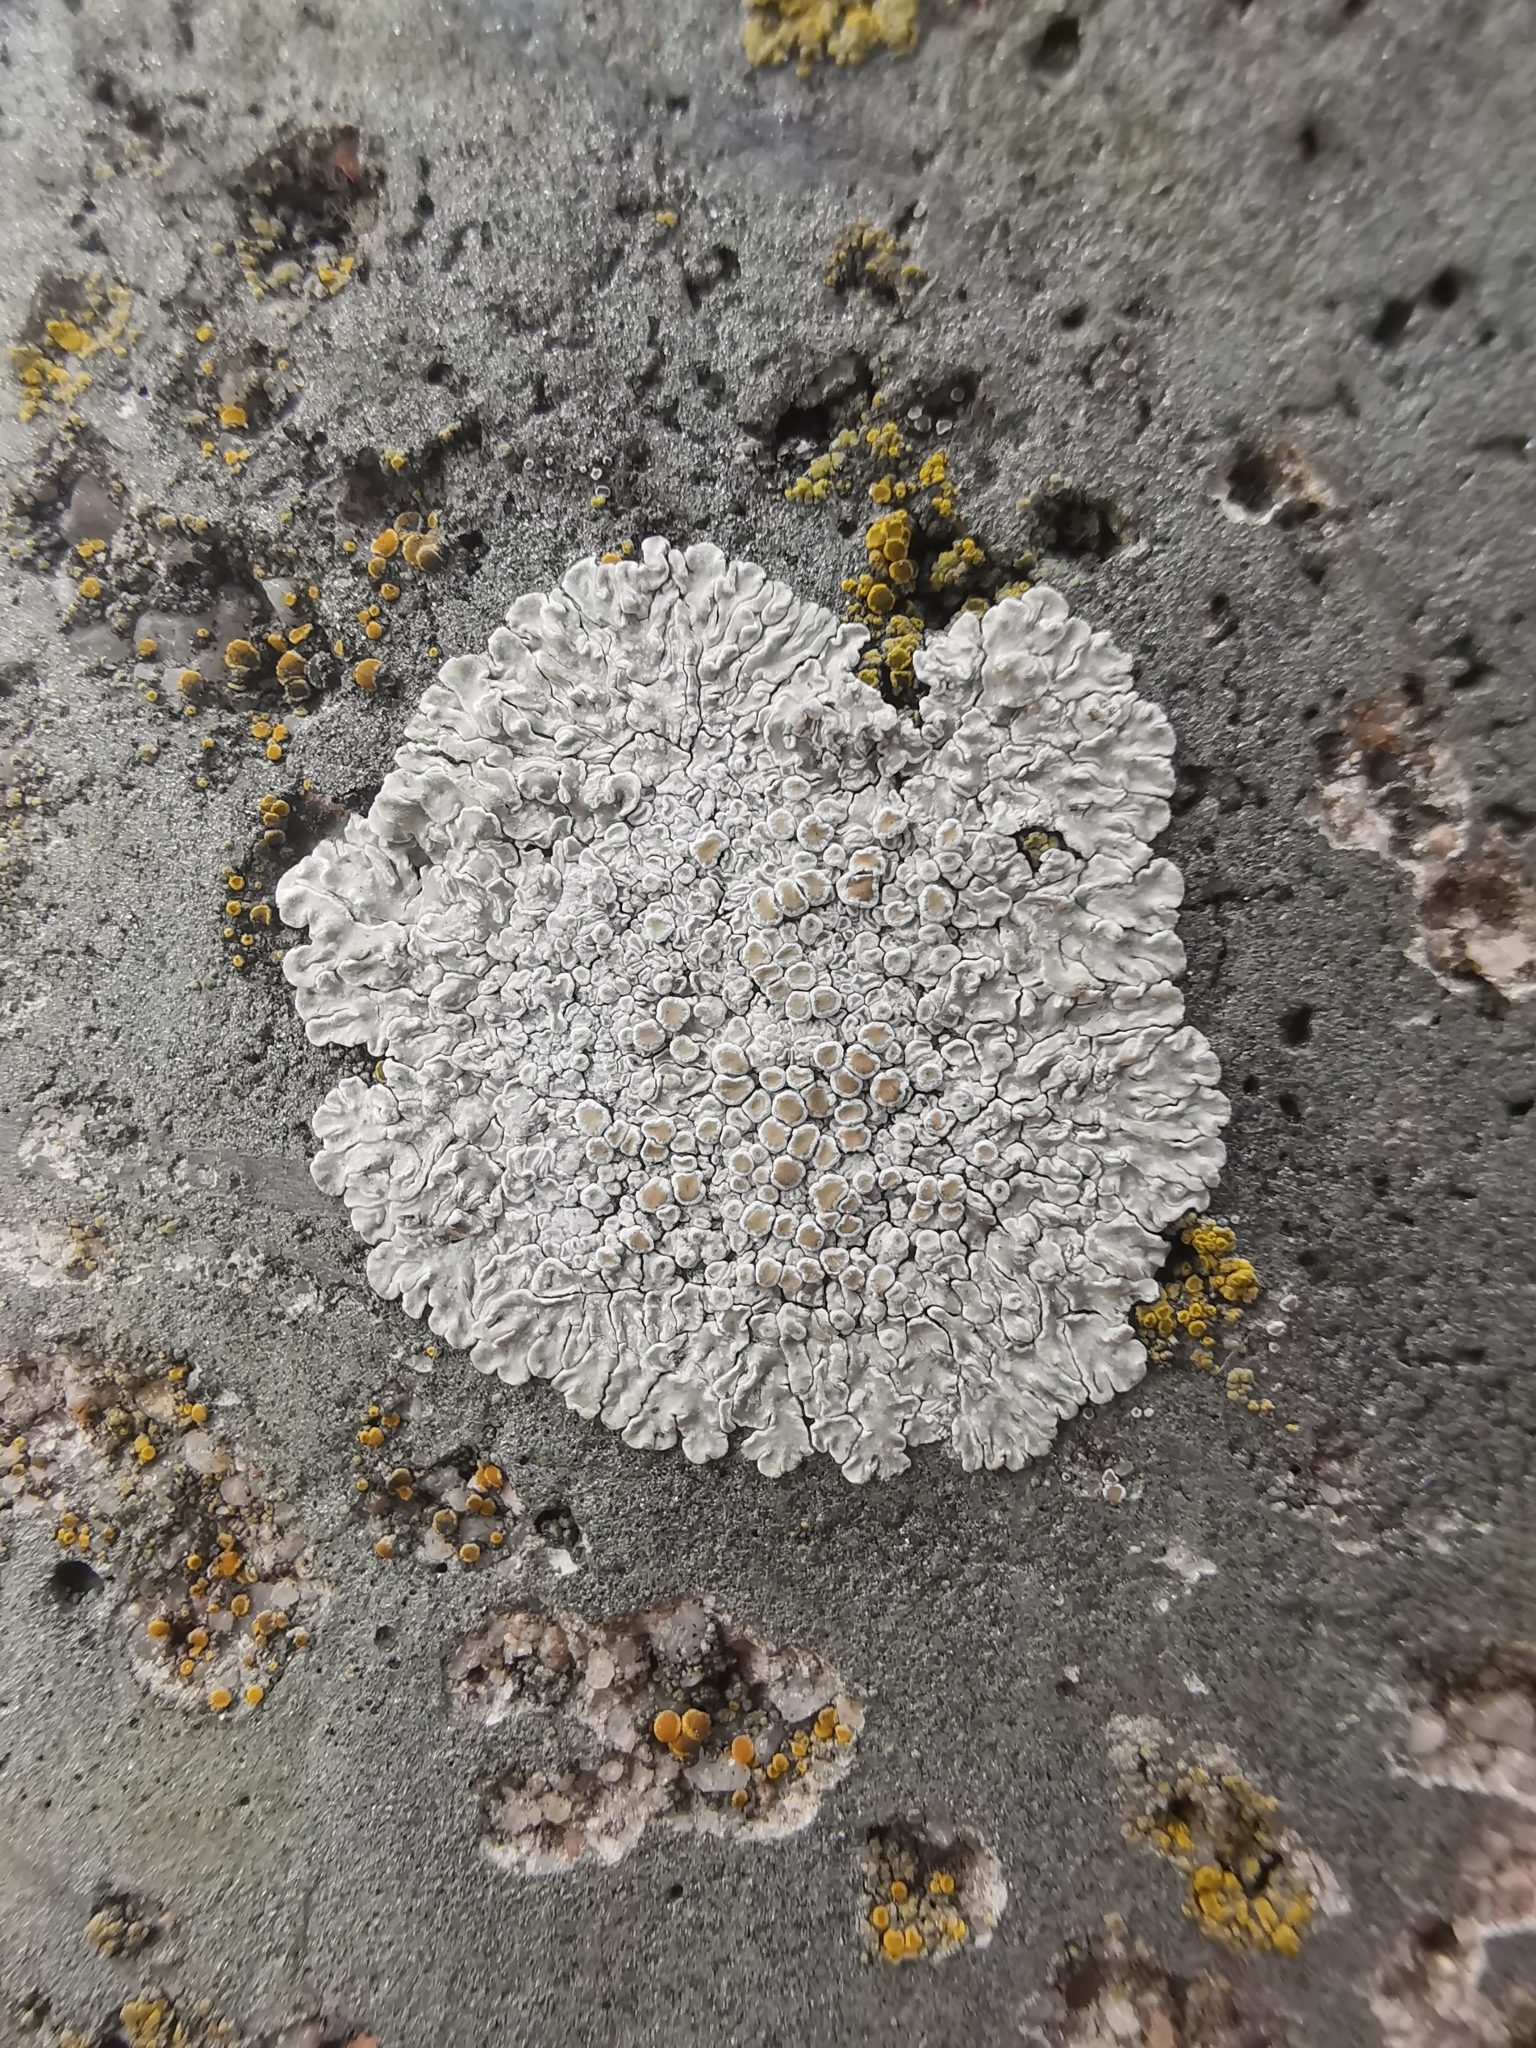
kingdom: Fungi
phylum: Ascomycota
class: Lecanoromycetes
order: Lecanorales
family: Lecanoraceae
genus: Protoparmeliopsis
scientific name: Protoparmeliopsis muralis
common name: Stonewall rim lichen
